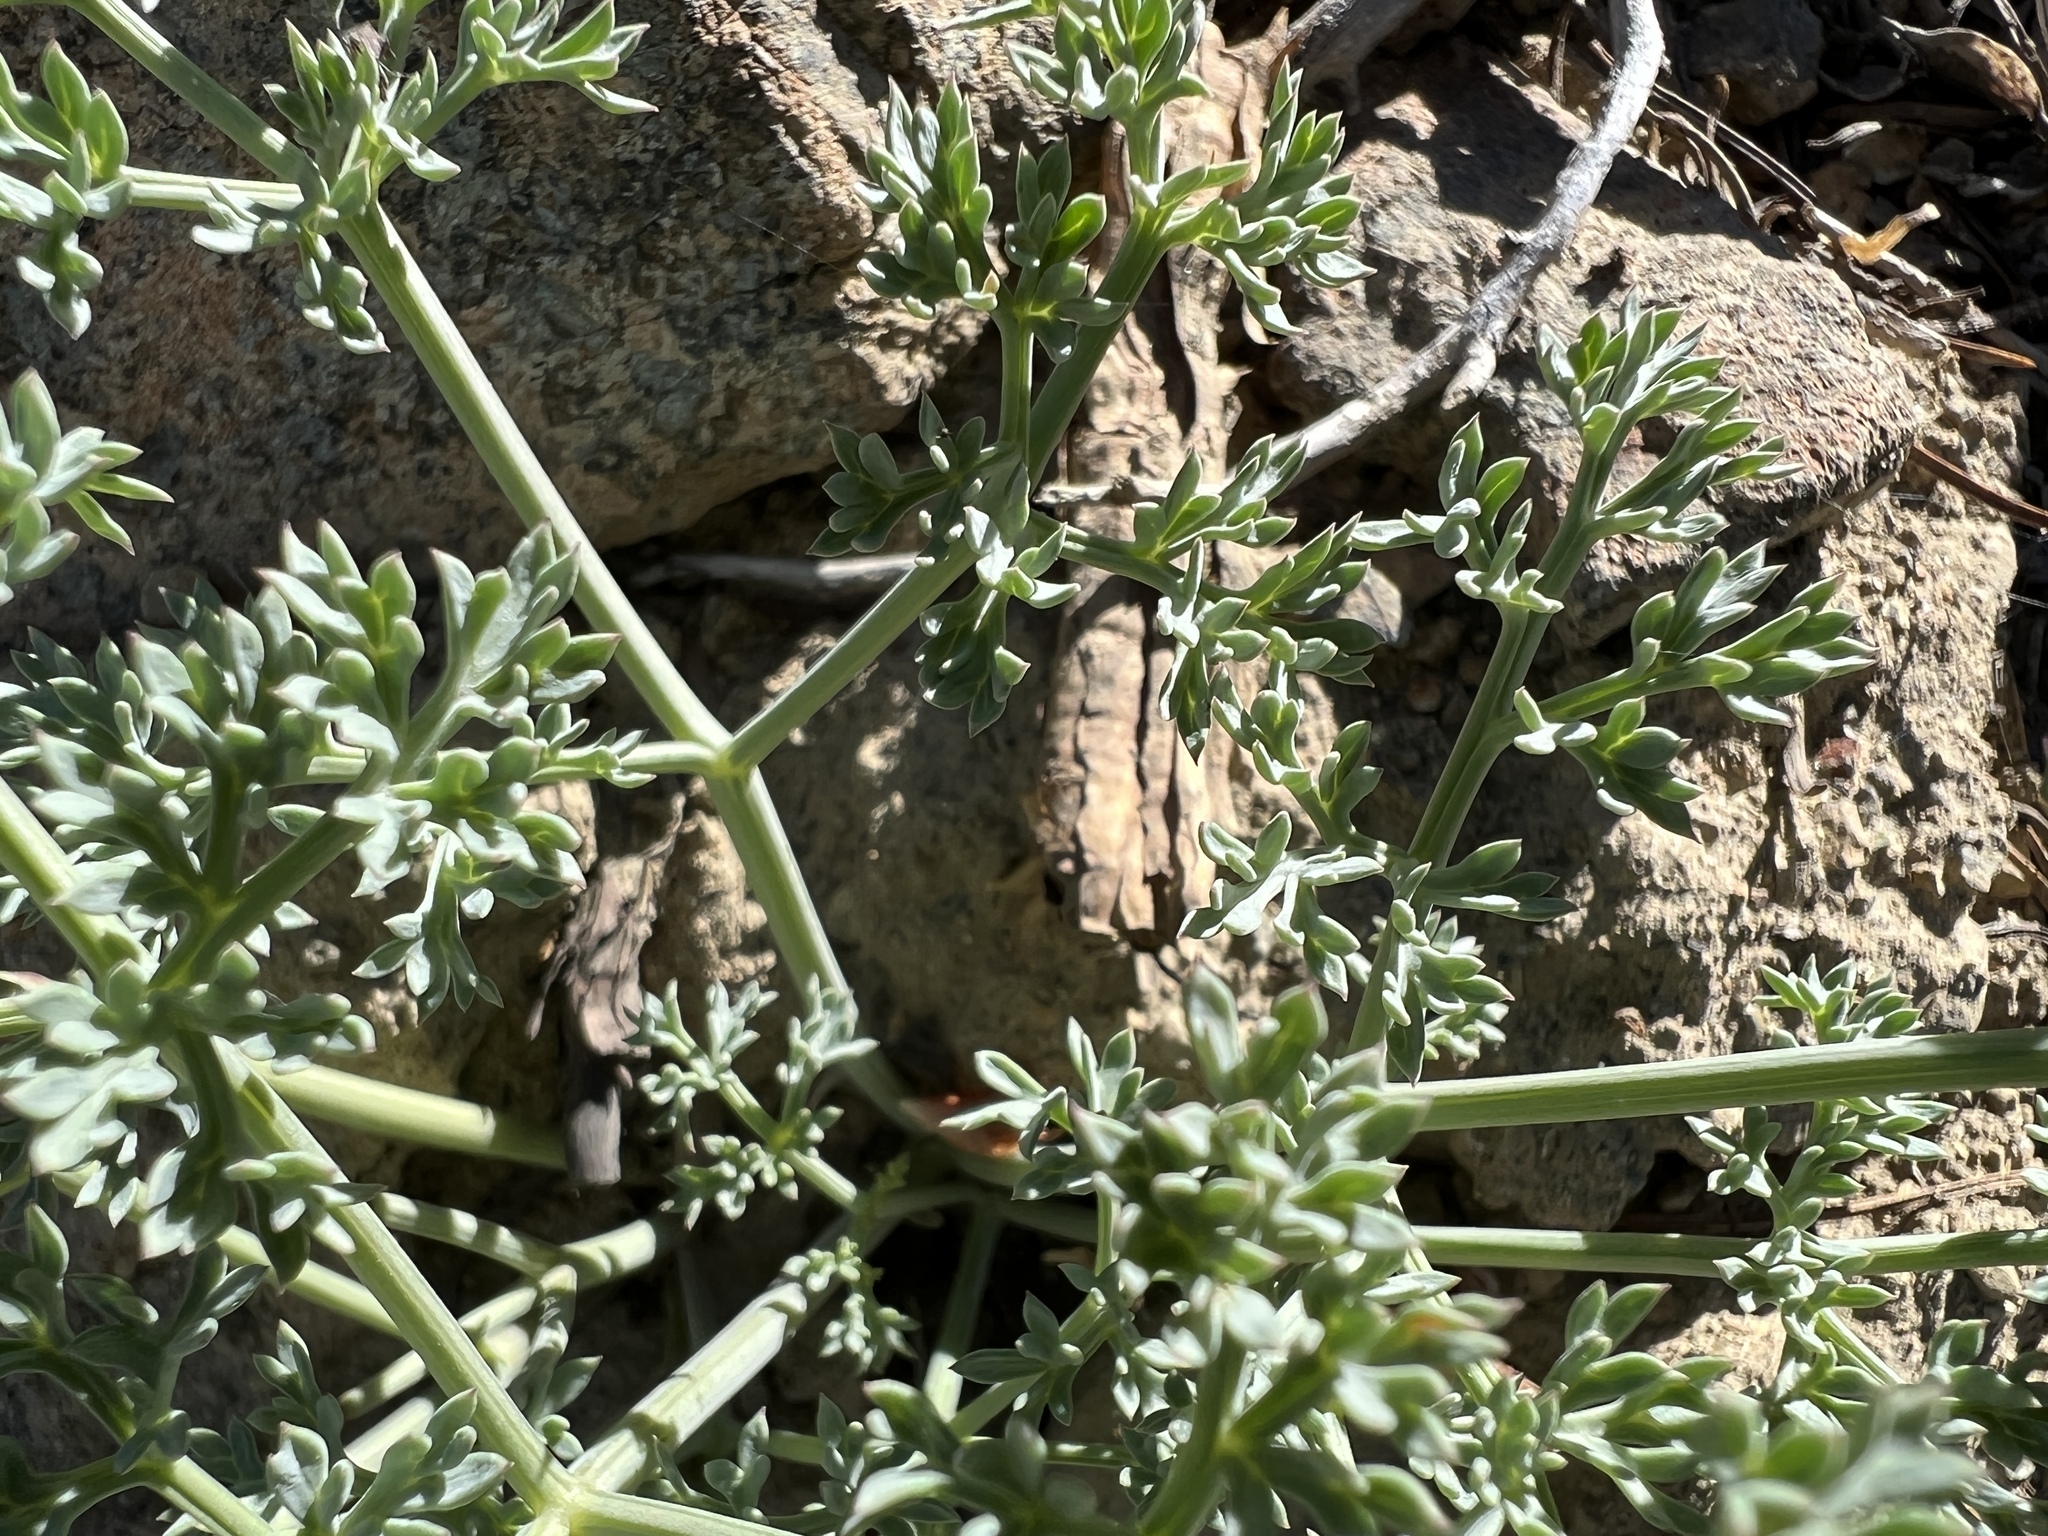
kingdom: Plantae
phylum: Tracheophyta
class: Magnoliopsida
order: Apiales
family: Apiaceae
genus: Lomatium
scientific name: Lomatium cuspidatum
